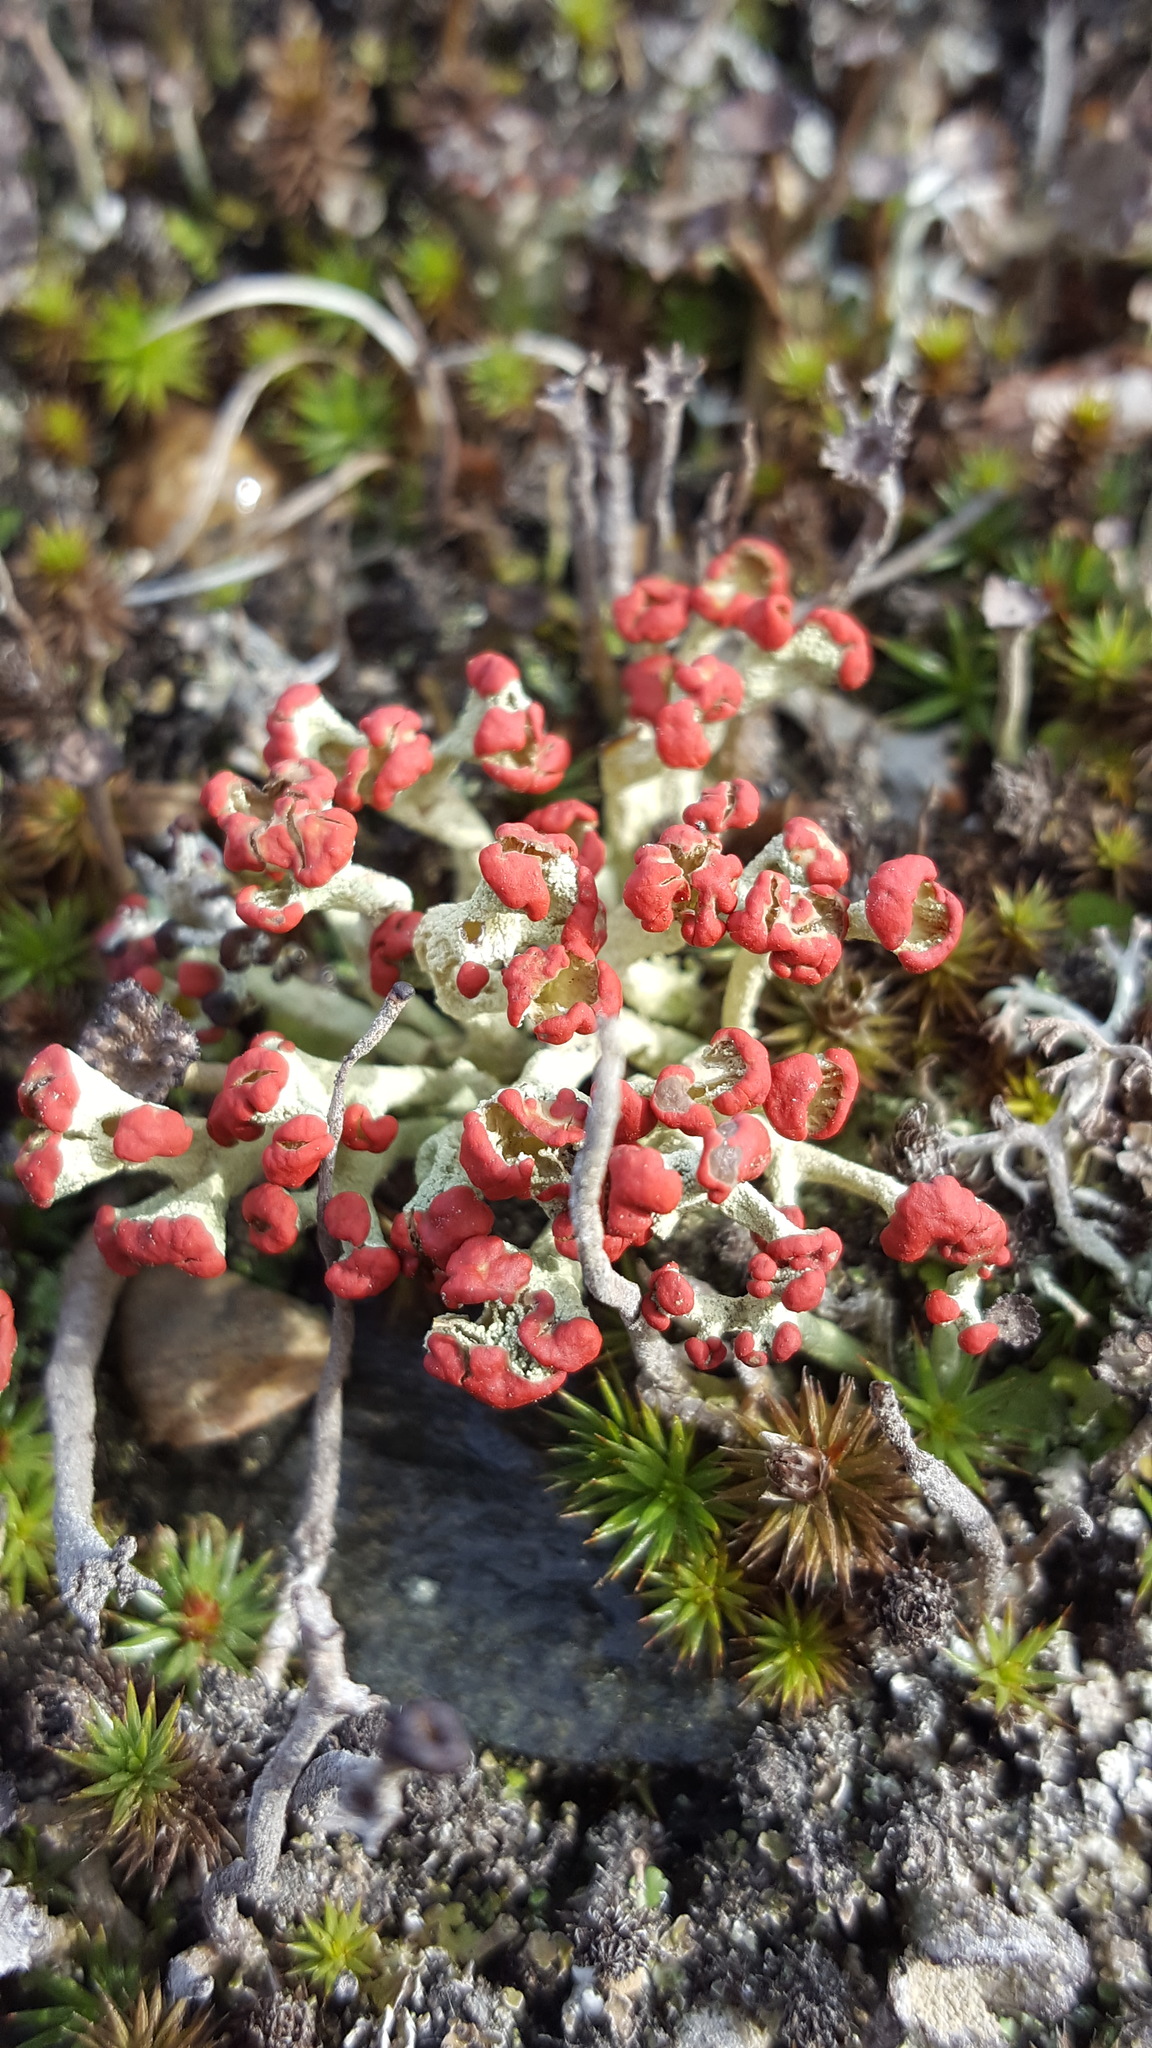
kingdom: Fungi
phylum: Ascomycota
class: Lecanoromycetes
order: Lecanorales
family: Cladoniaceae
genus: Cladonia
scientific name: Cladonia cristatella
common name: British soldier lichen
